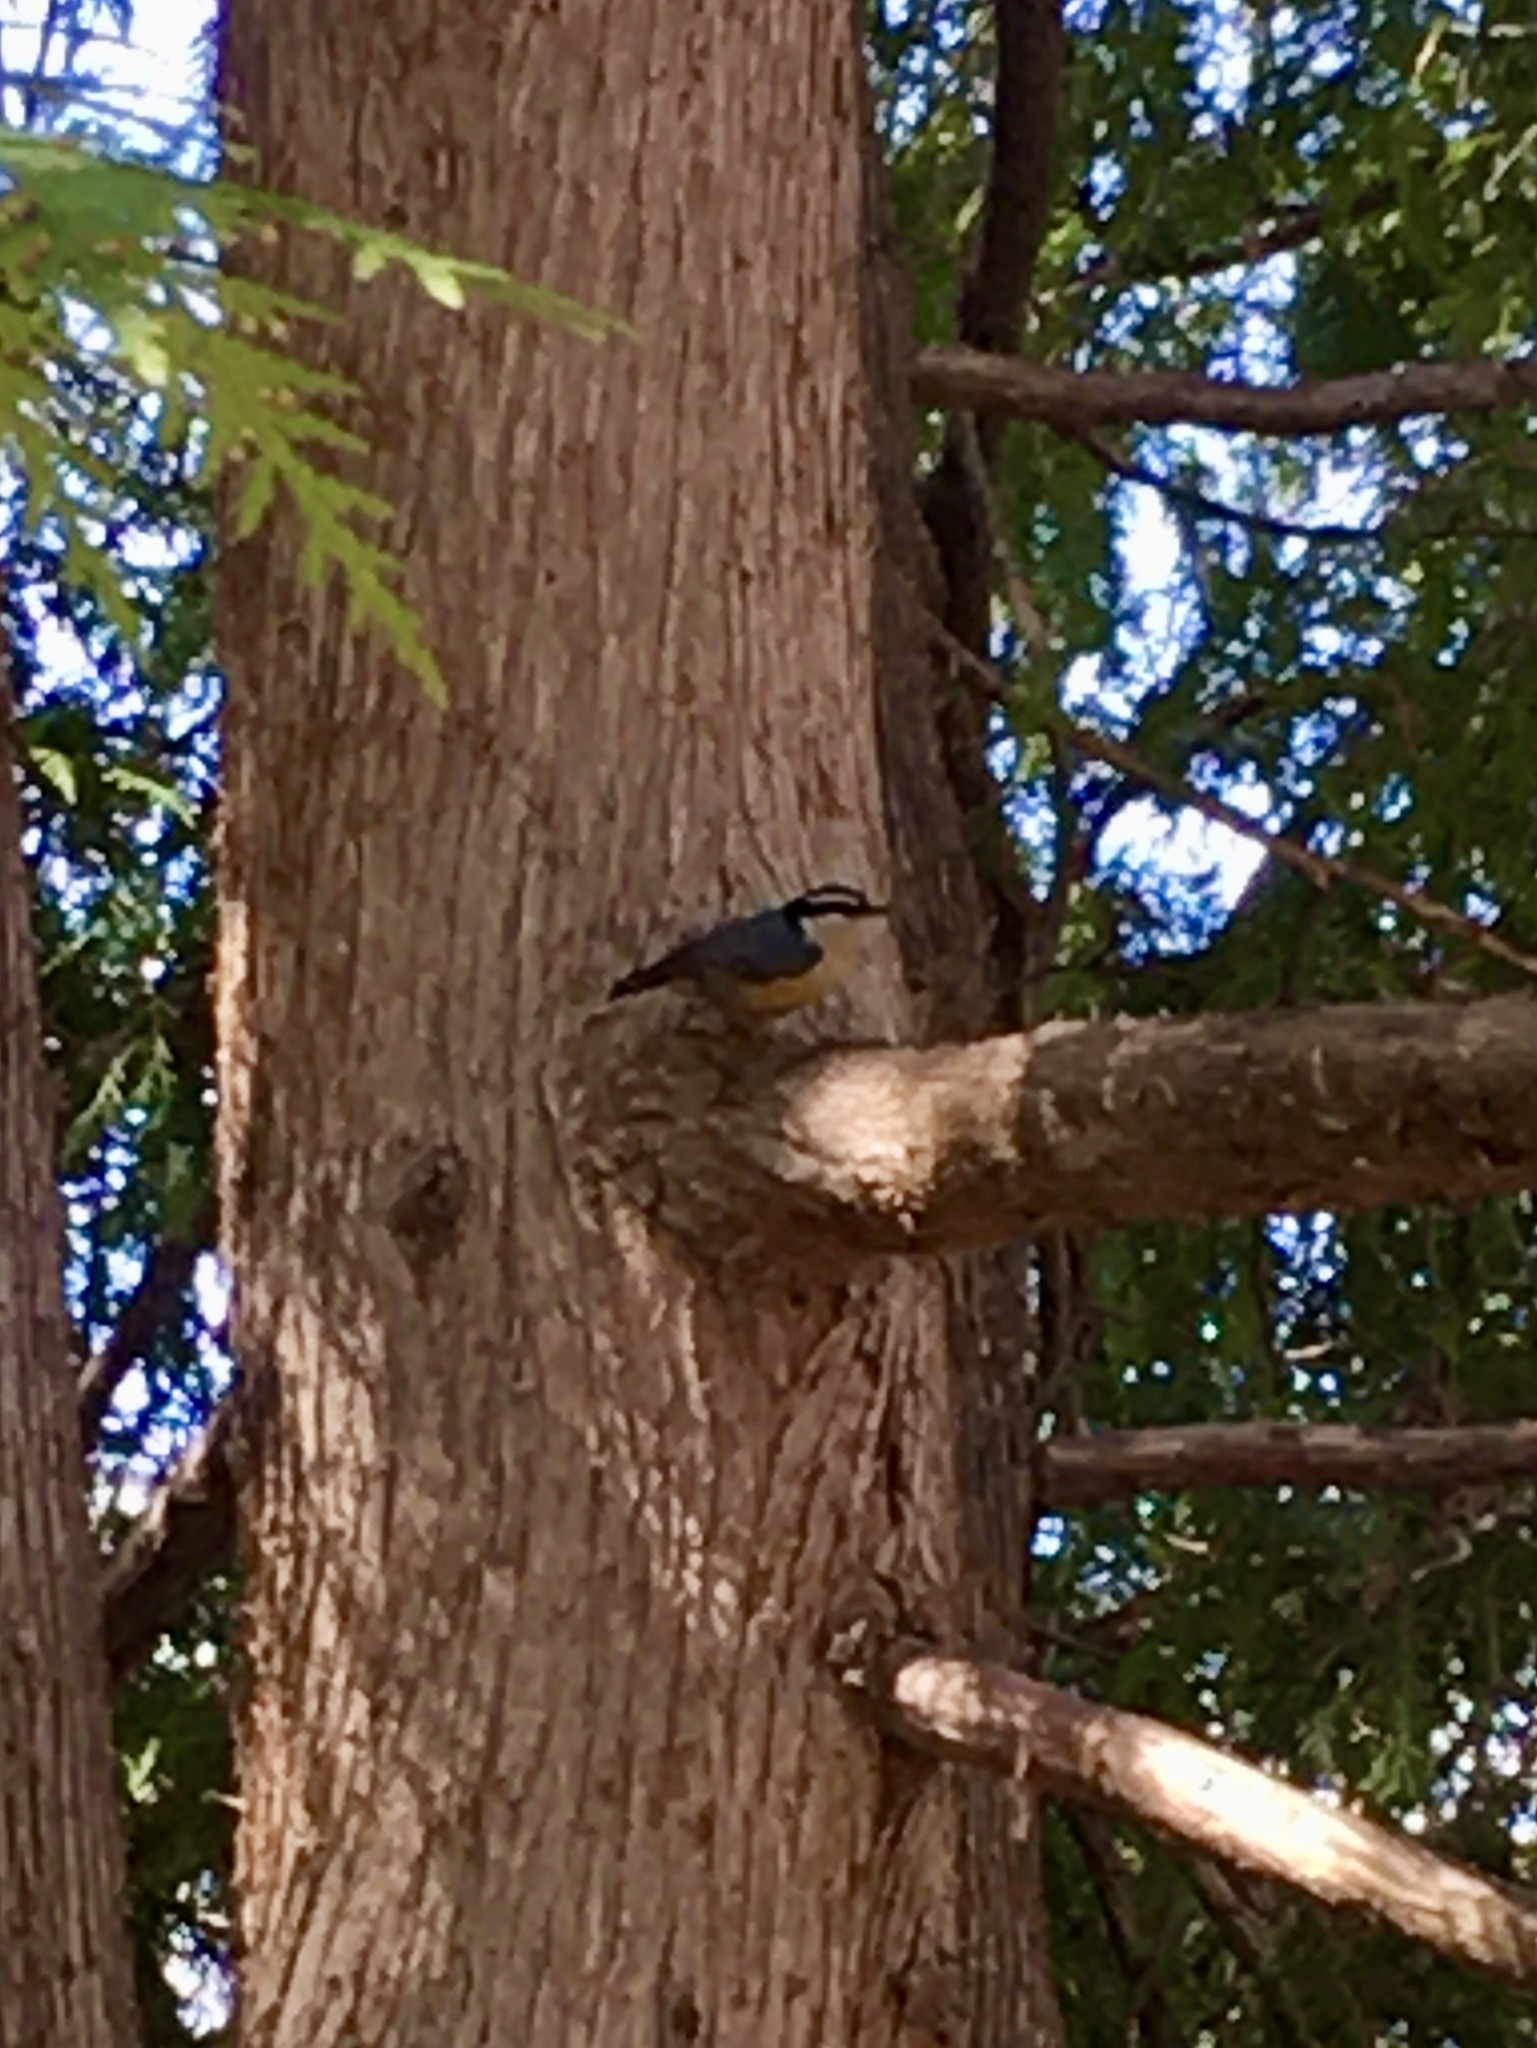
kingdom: Animalia
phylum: Chordata
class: Aves
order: Passeriformes
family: Sittidae
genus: Sitta
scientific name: Sitta canadensis
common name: Red-breasted nuthatch
